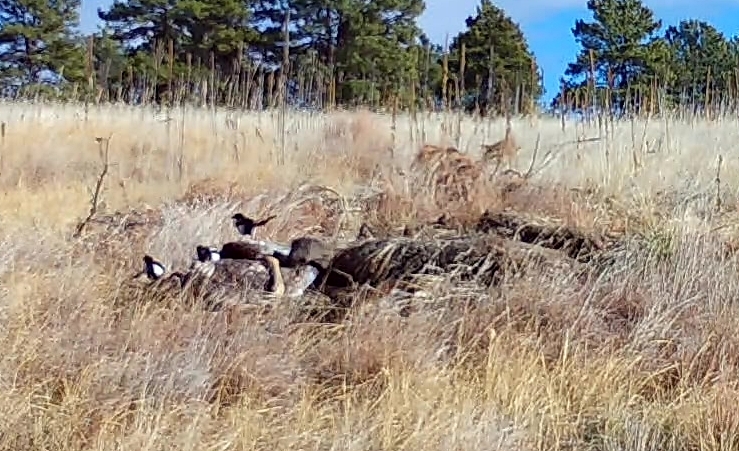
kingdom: Animalia
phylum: Chordata
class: Aves
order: Passeriformes
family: Corvidae
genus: Pica
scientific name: Pica hudsonia
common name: Black-billed magpie
